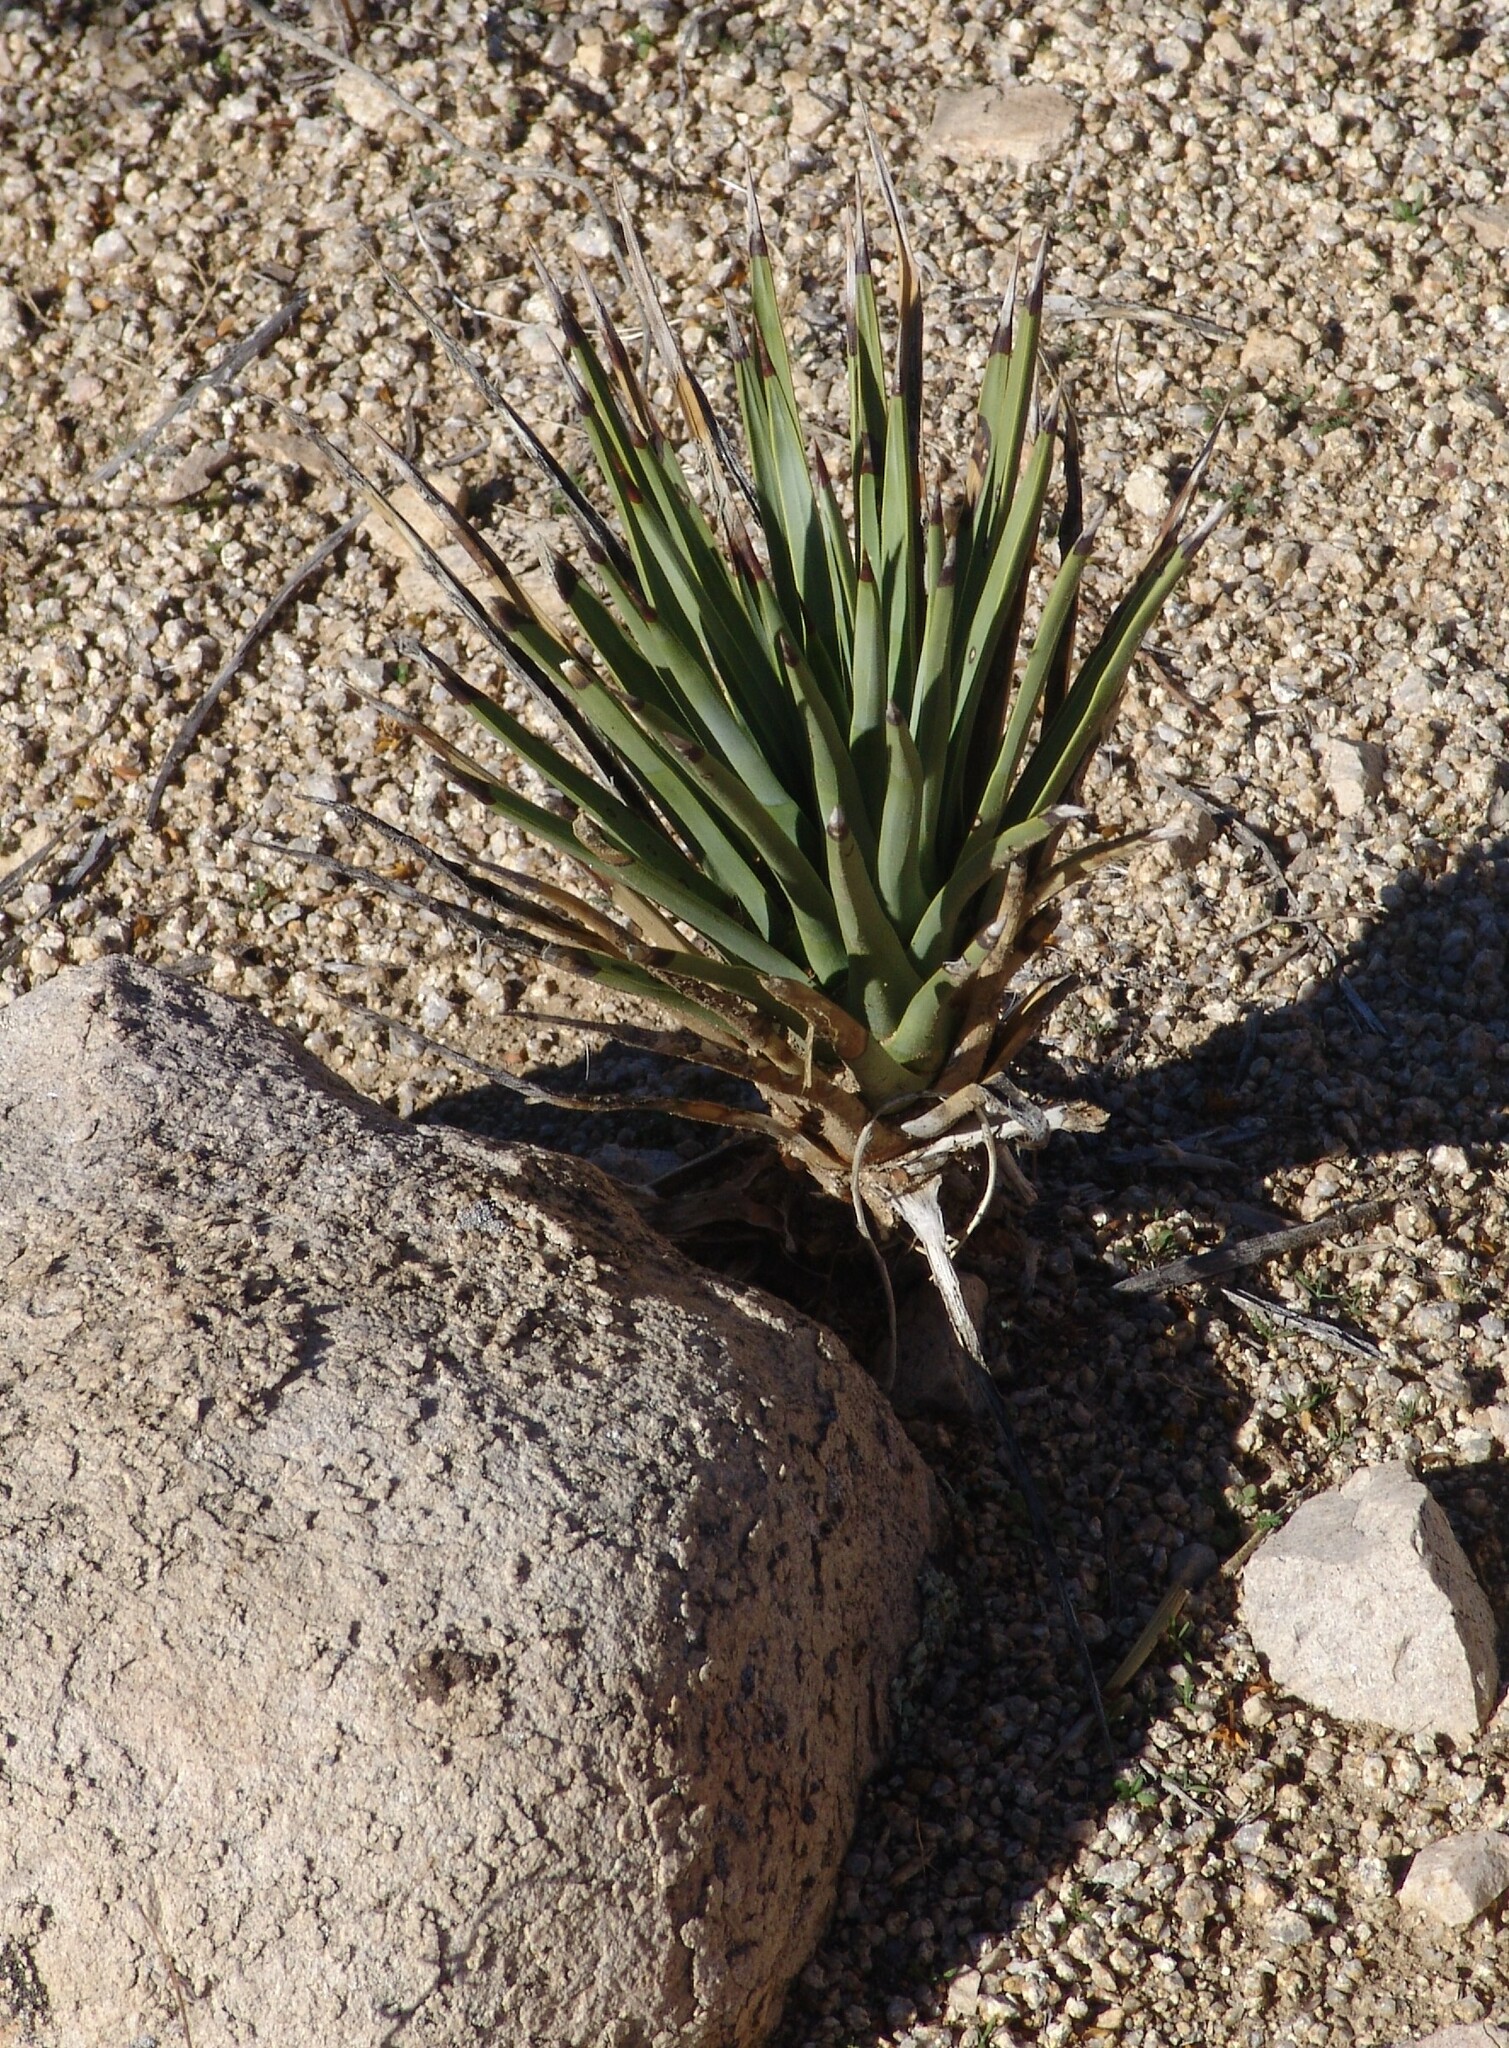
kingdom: Plantae
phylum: Tracheophyta
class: Liliopsida
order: Asparagales
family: Asparagaceae
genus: Yucca
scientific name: Yucca brevifolia
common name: Joshua tree
